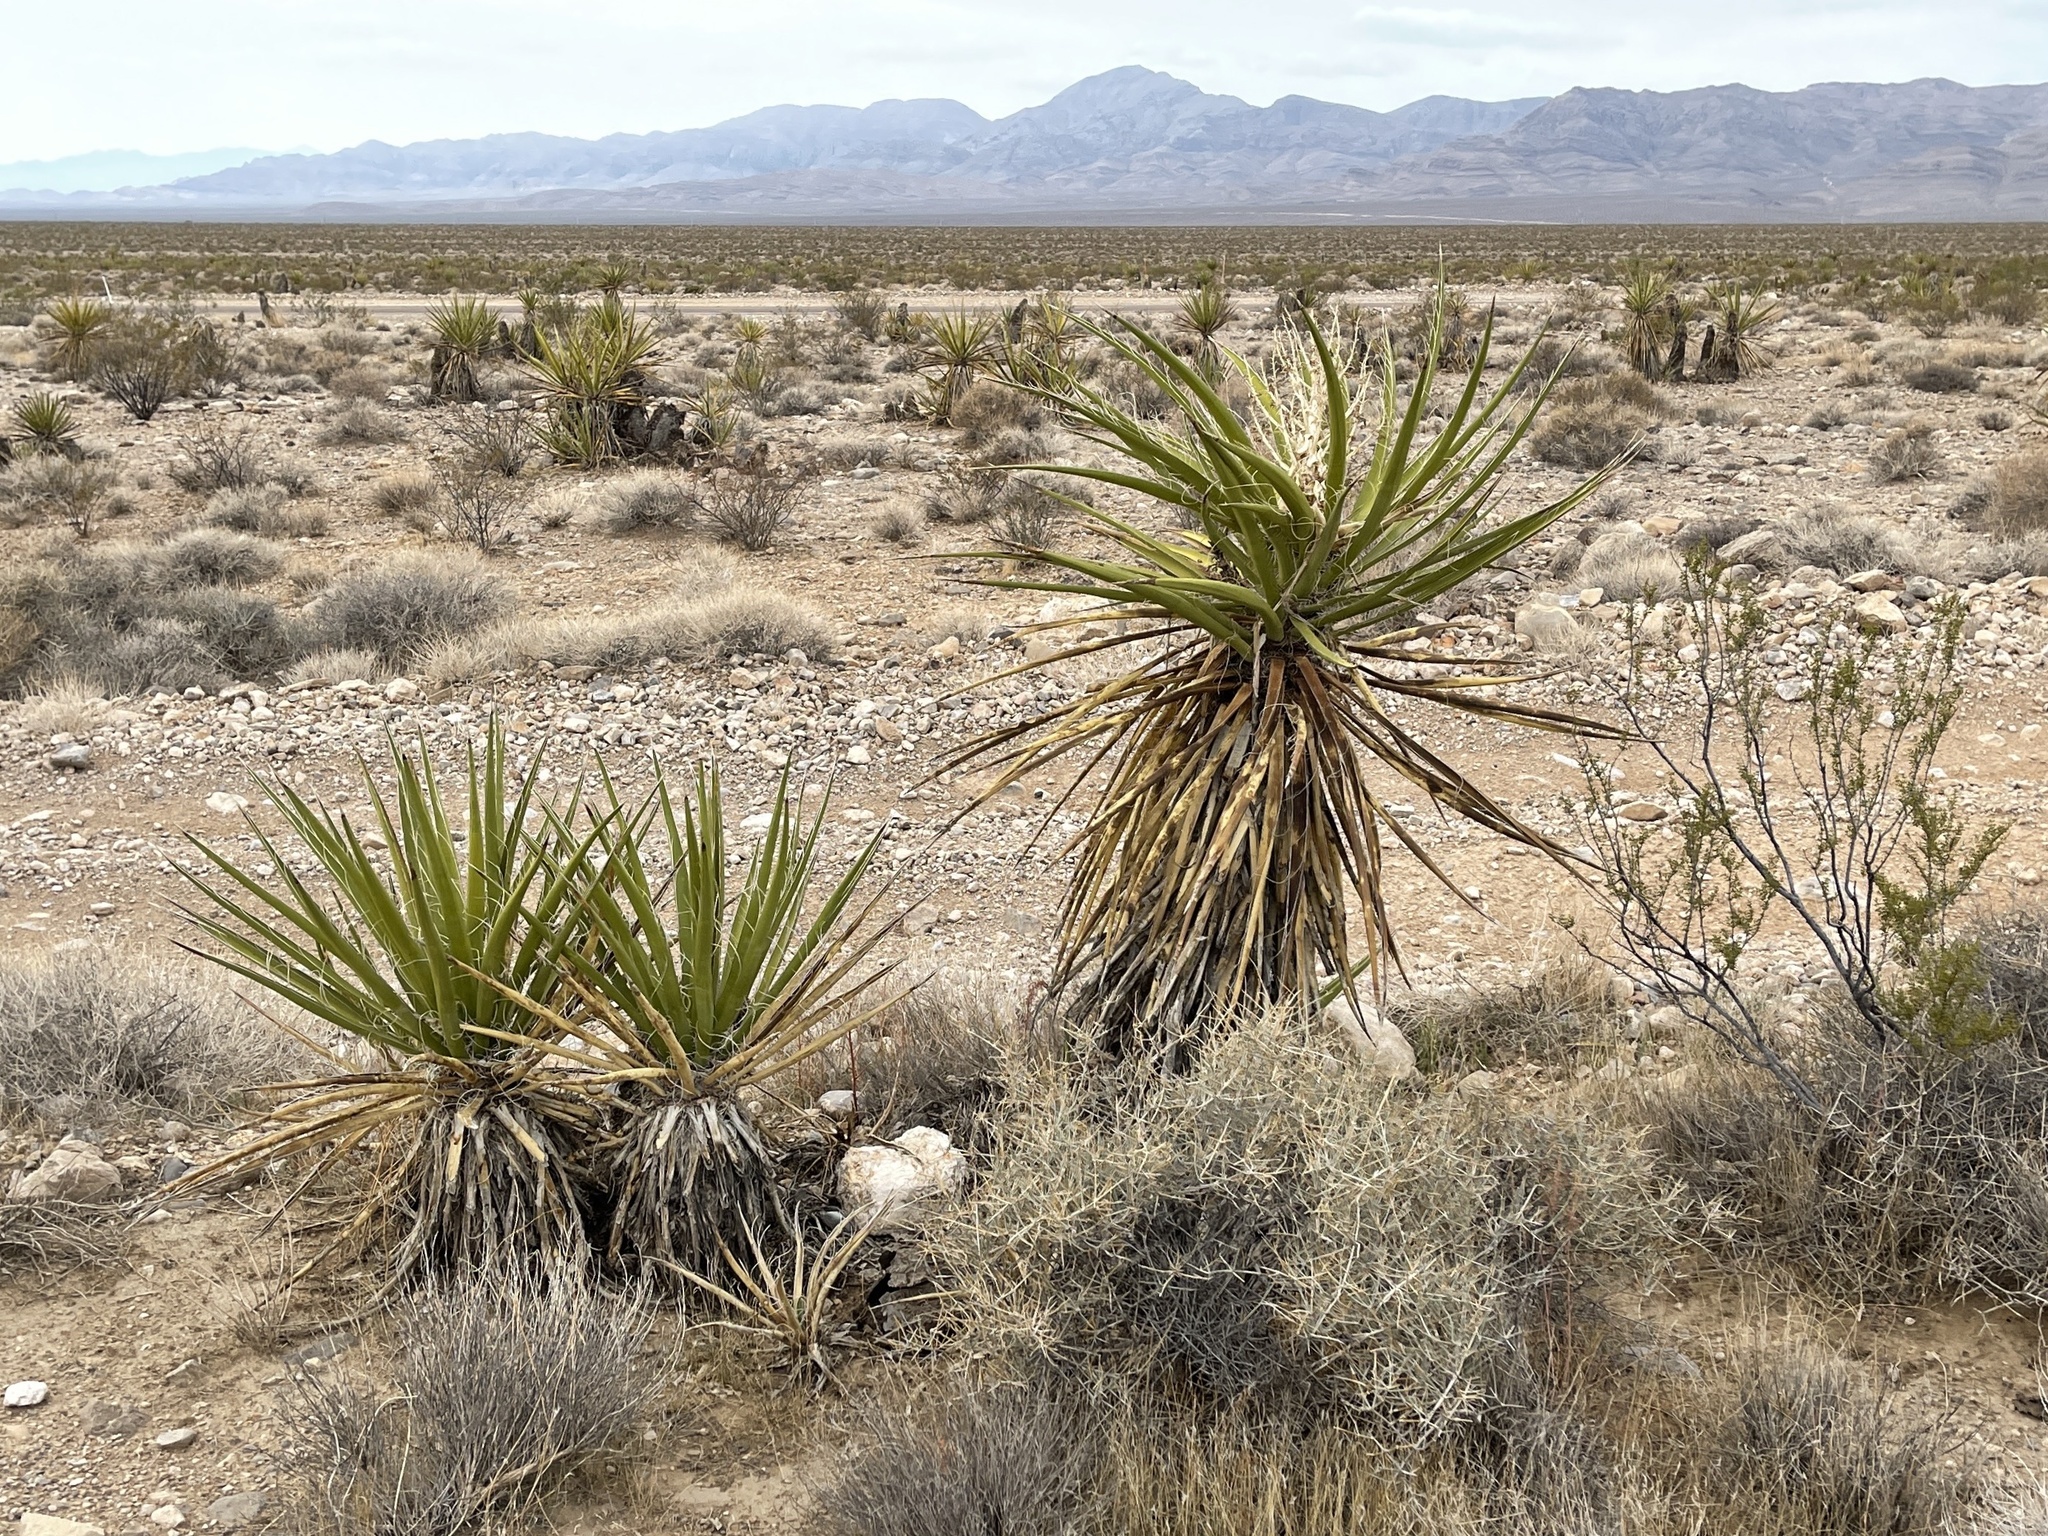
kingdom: Plantae
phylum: Tracheophyta
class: Liliopsida
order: Asparagales
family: Asparagaceae
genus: Yucca
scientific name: Yucca schidigera
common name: Mojave yucca
